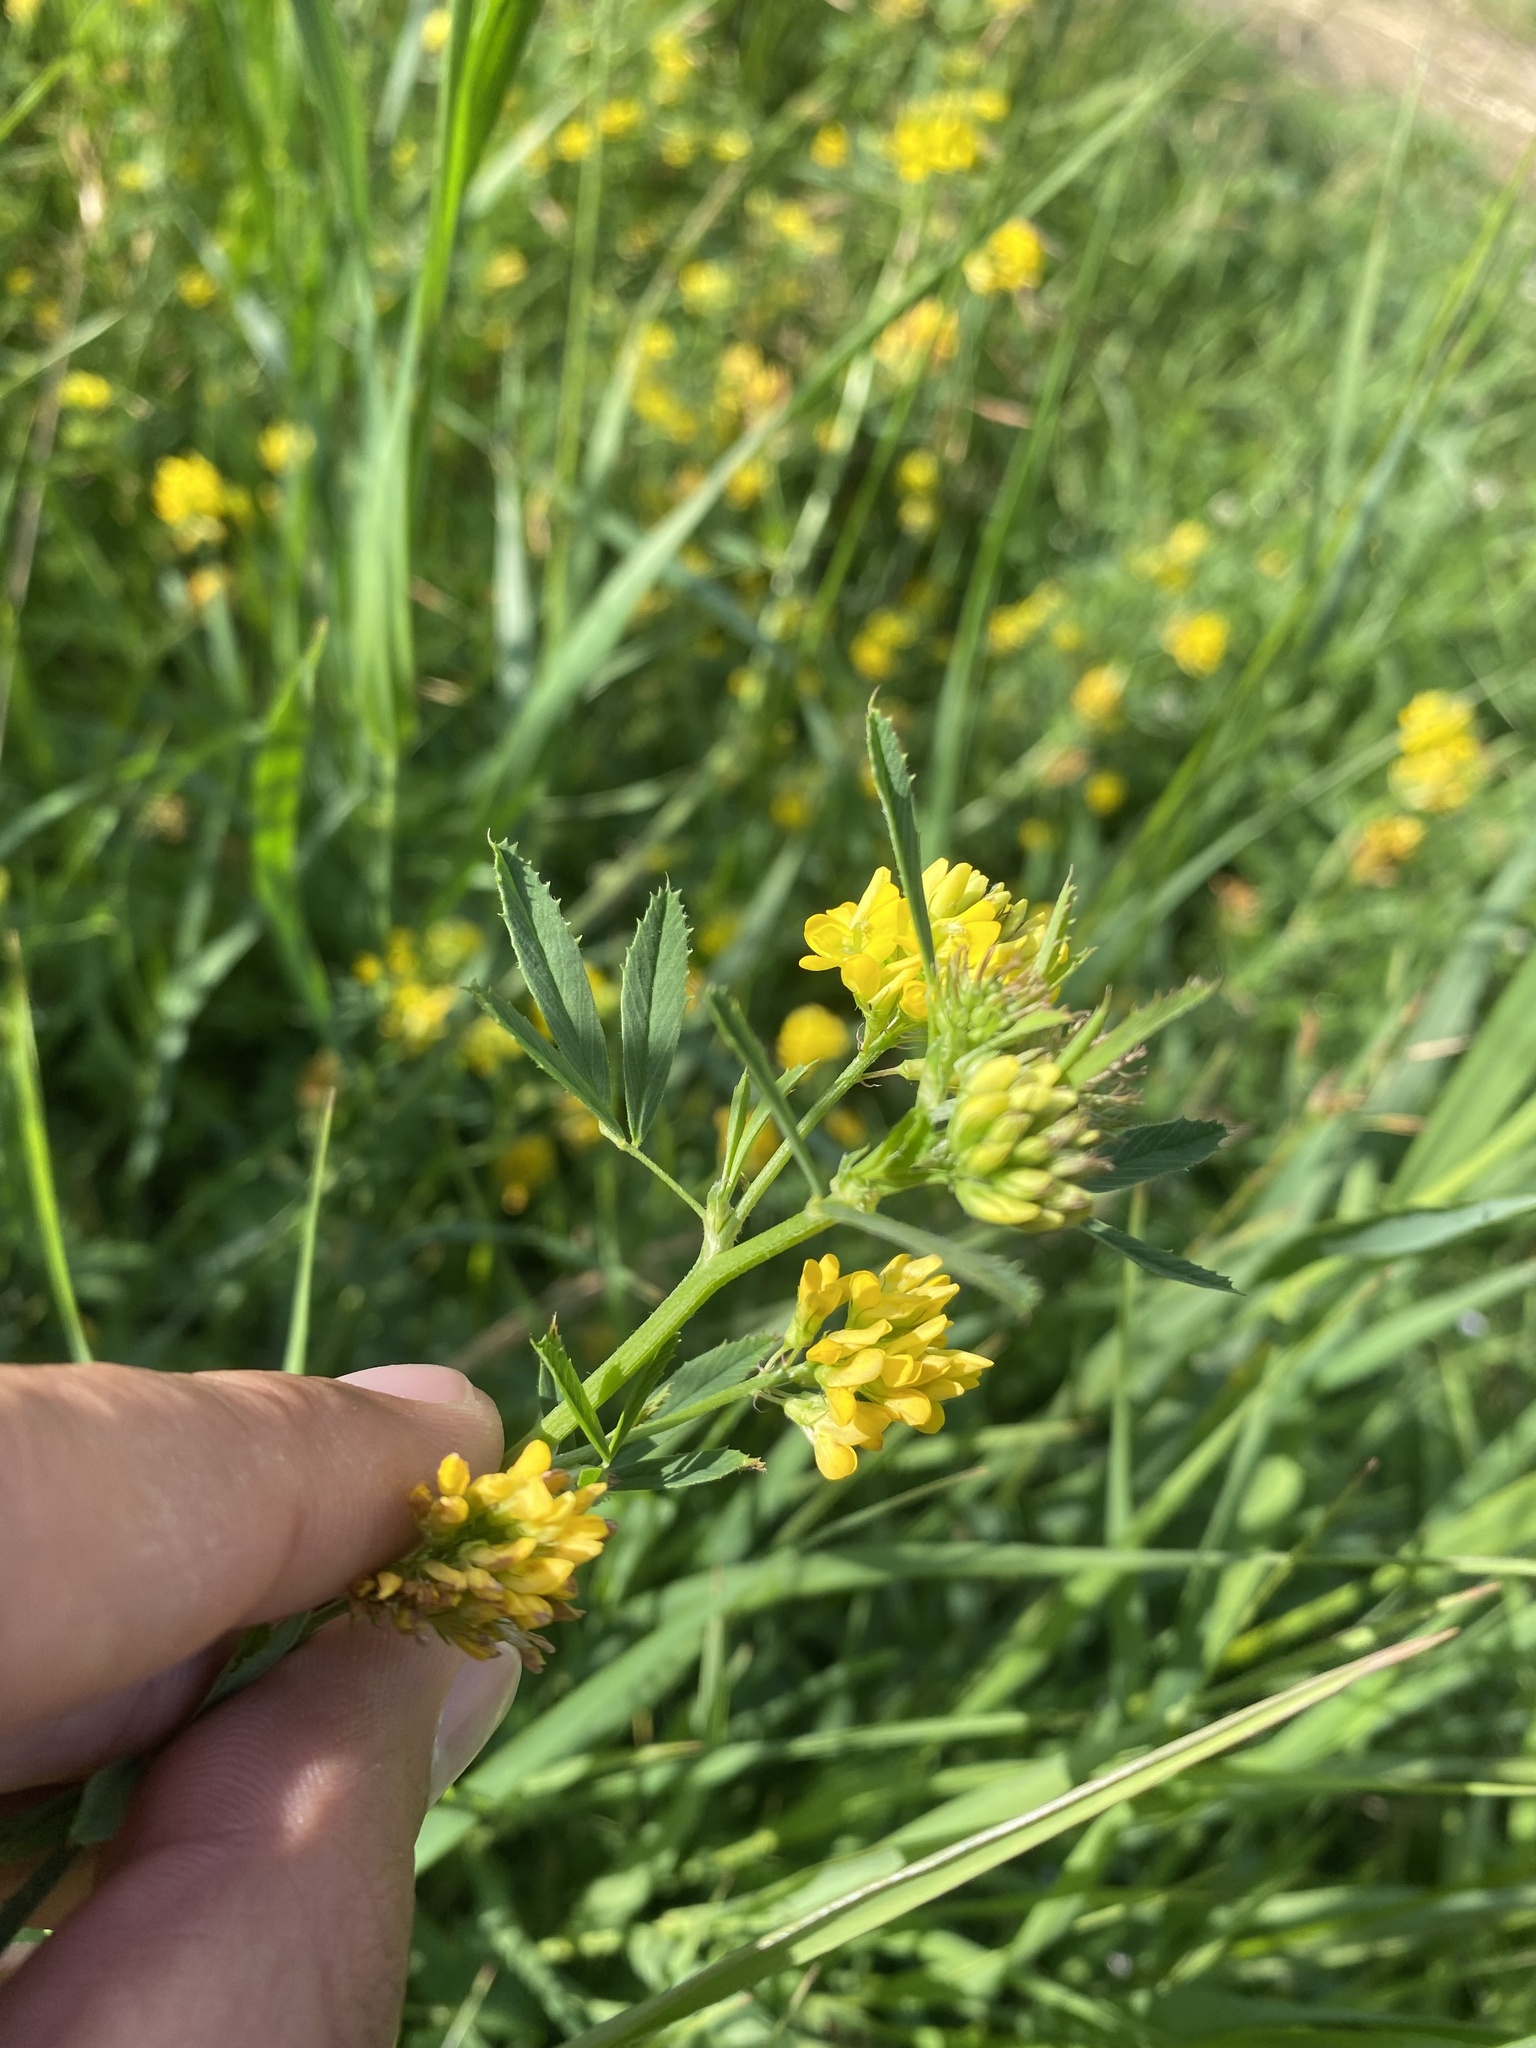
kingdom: Plantae
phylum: Tracheophyta
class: Magnoliopsida
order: Fabales
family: Fabaceae
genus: Medicago
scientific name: Medicago falcata
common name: Sickle medick
